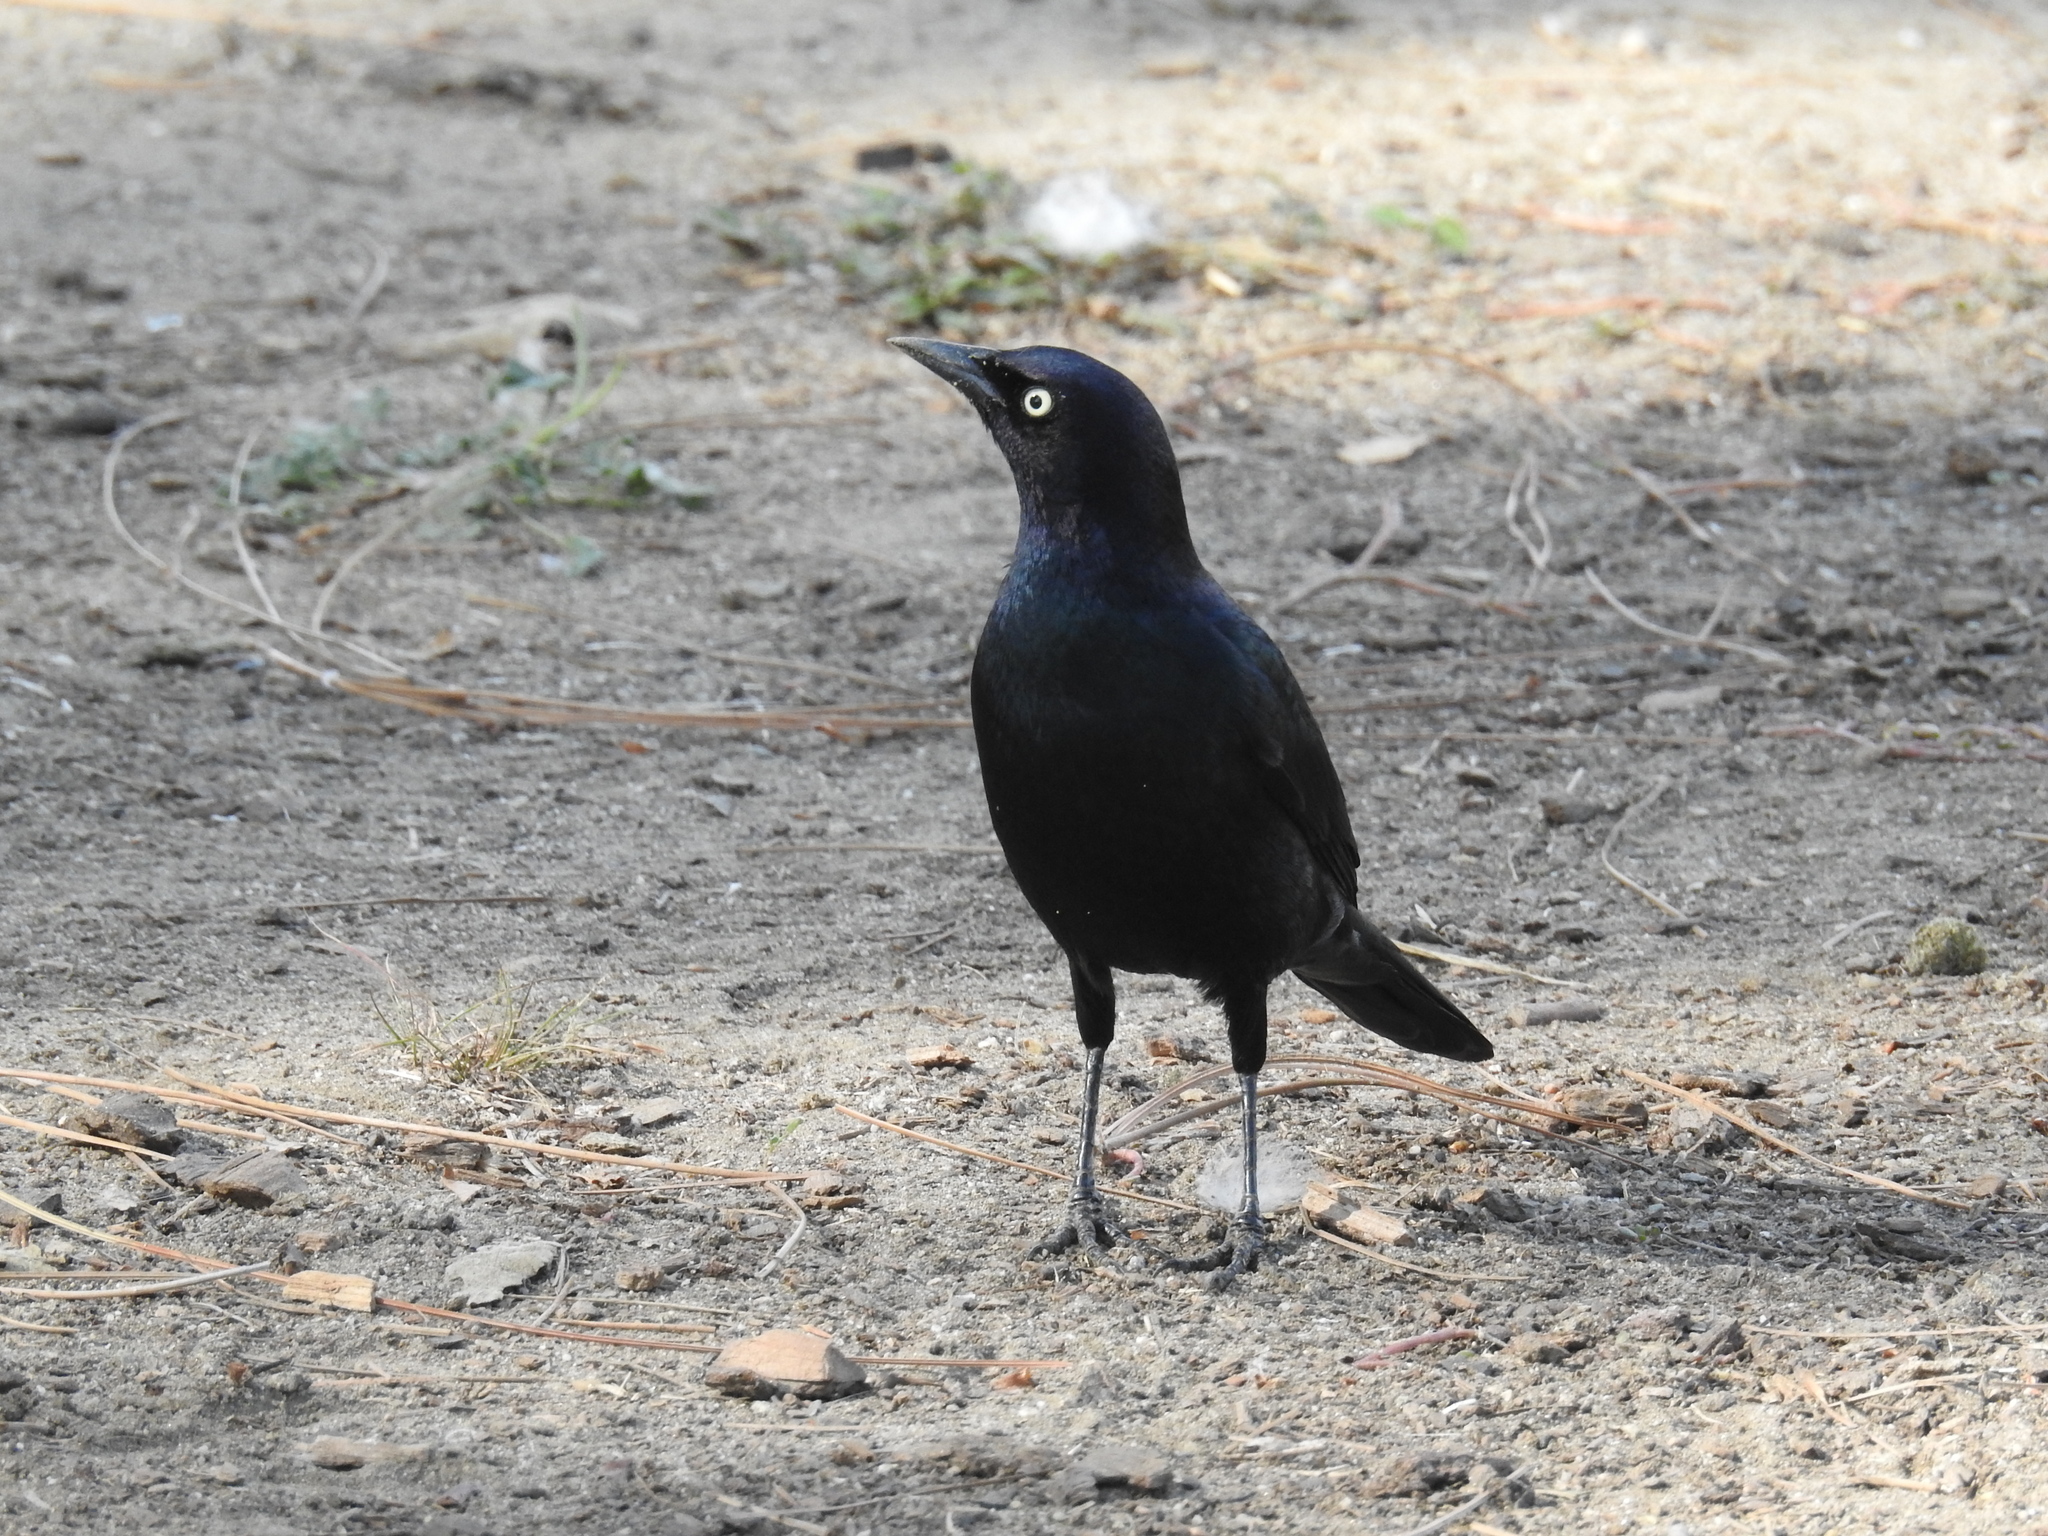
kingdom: Animalia
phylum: Chordata
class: Aves
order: Passeriformes
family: Icteridae
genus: Euphagus
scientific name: Euphagus cyanocephalus
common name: Brewer's blackbird
